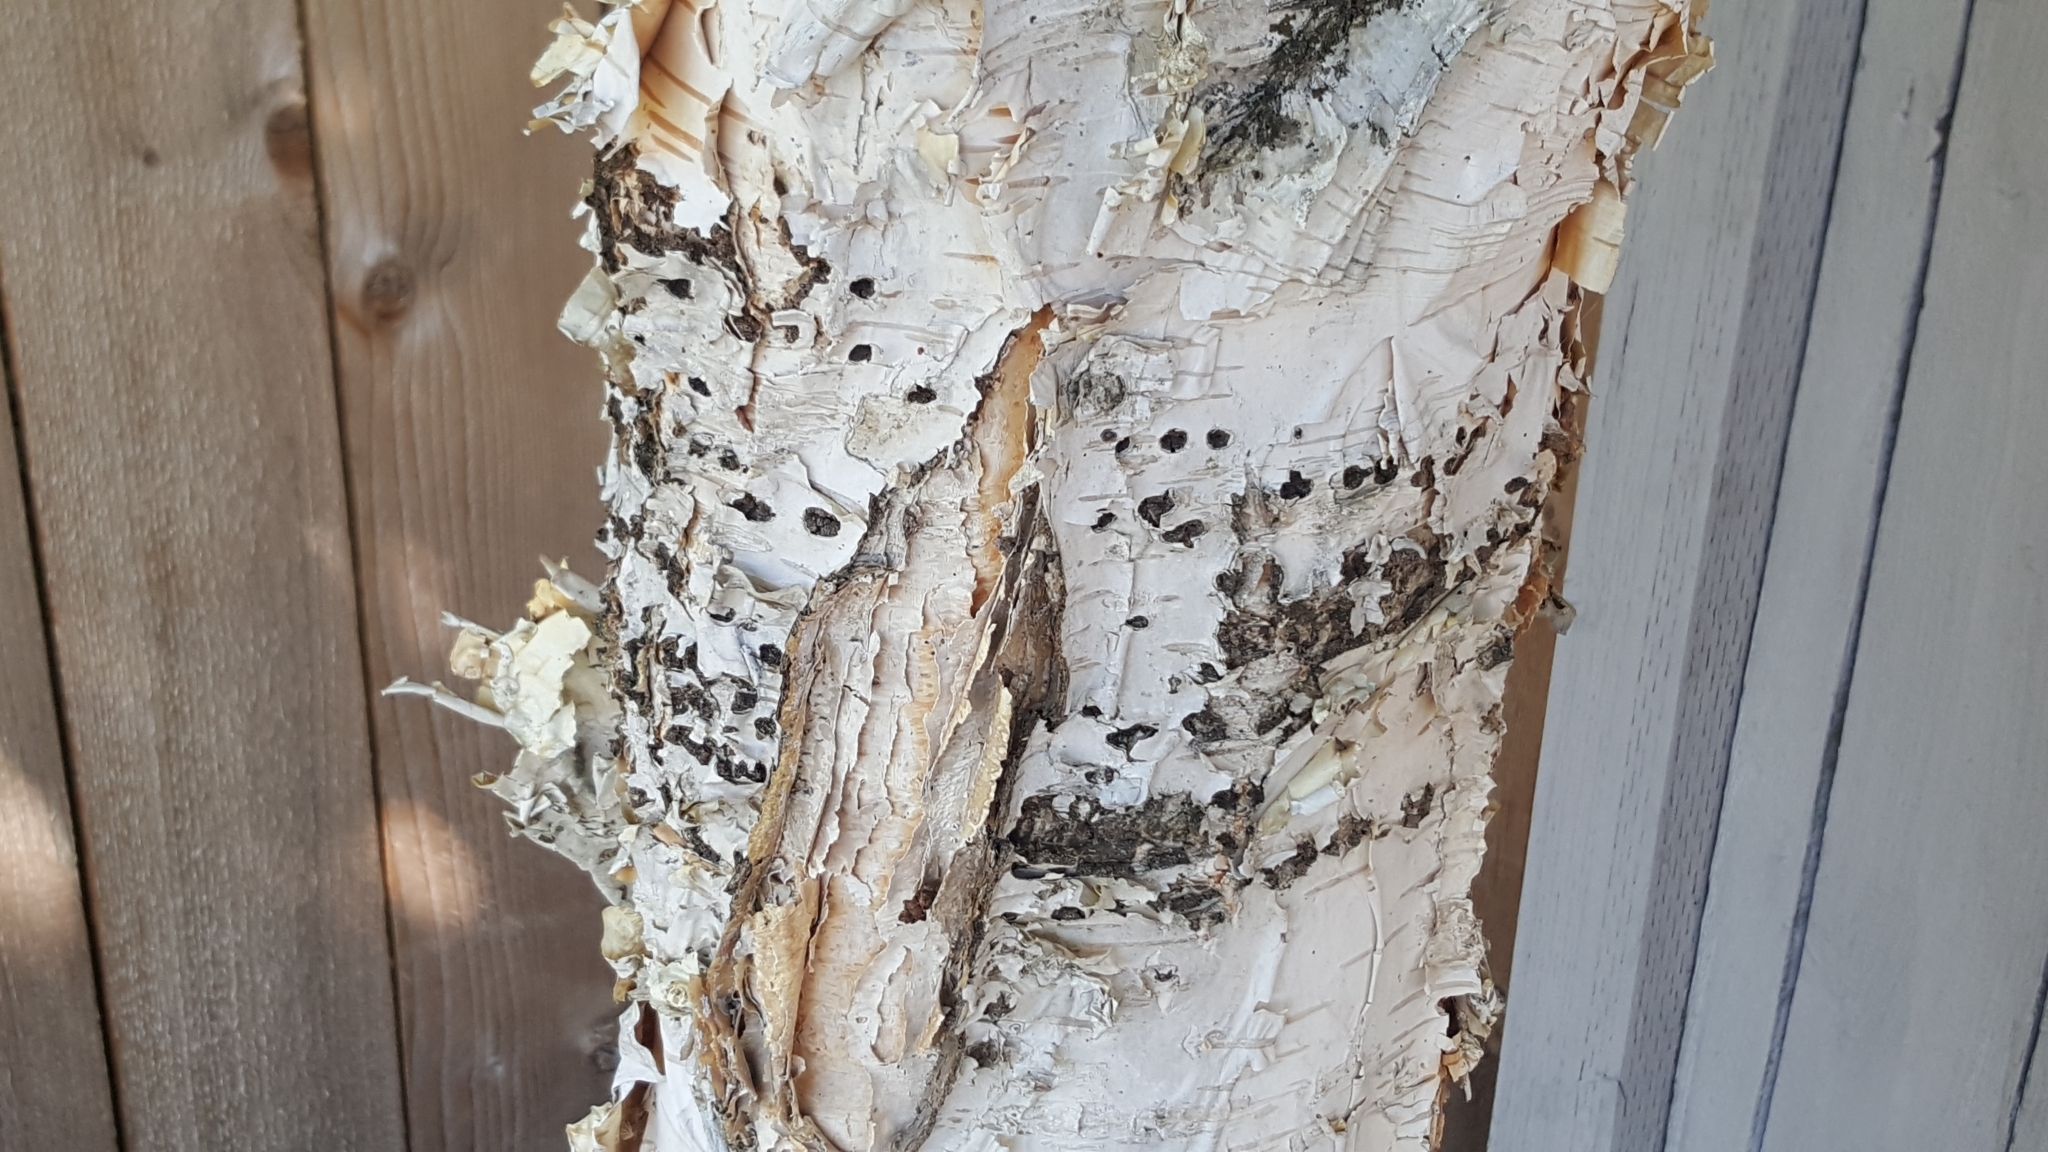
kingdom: Animalia
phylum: Chordata
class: Aves
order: Piciformes
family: Picidae
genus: Sphyrapicus
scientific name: Sphyrapicus
